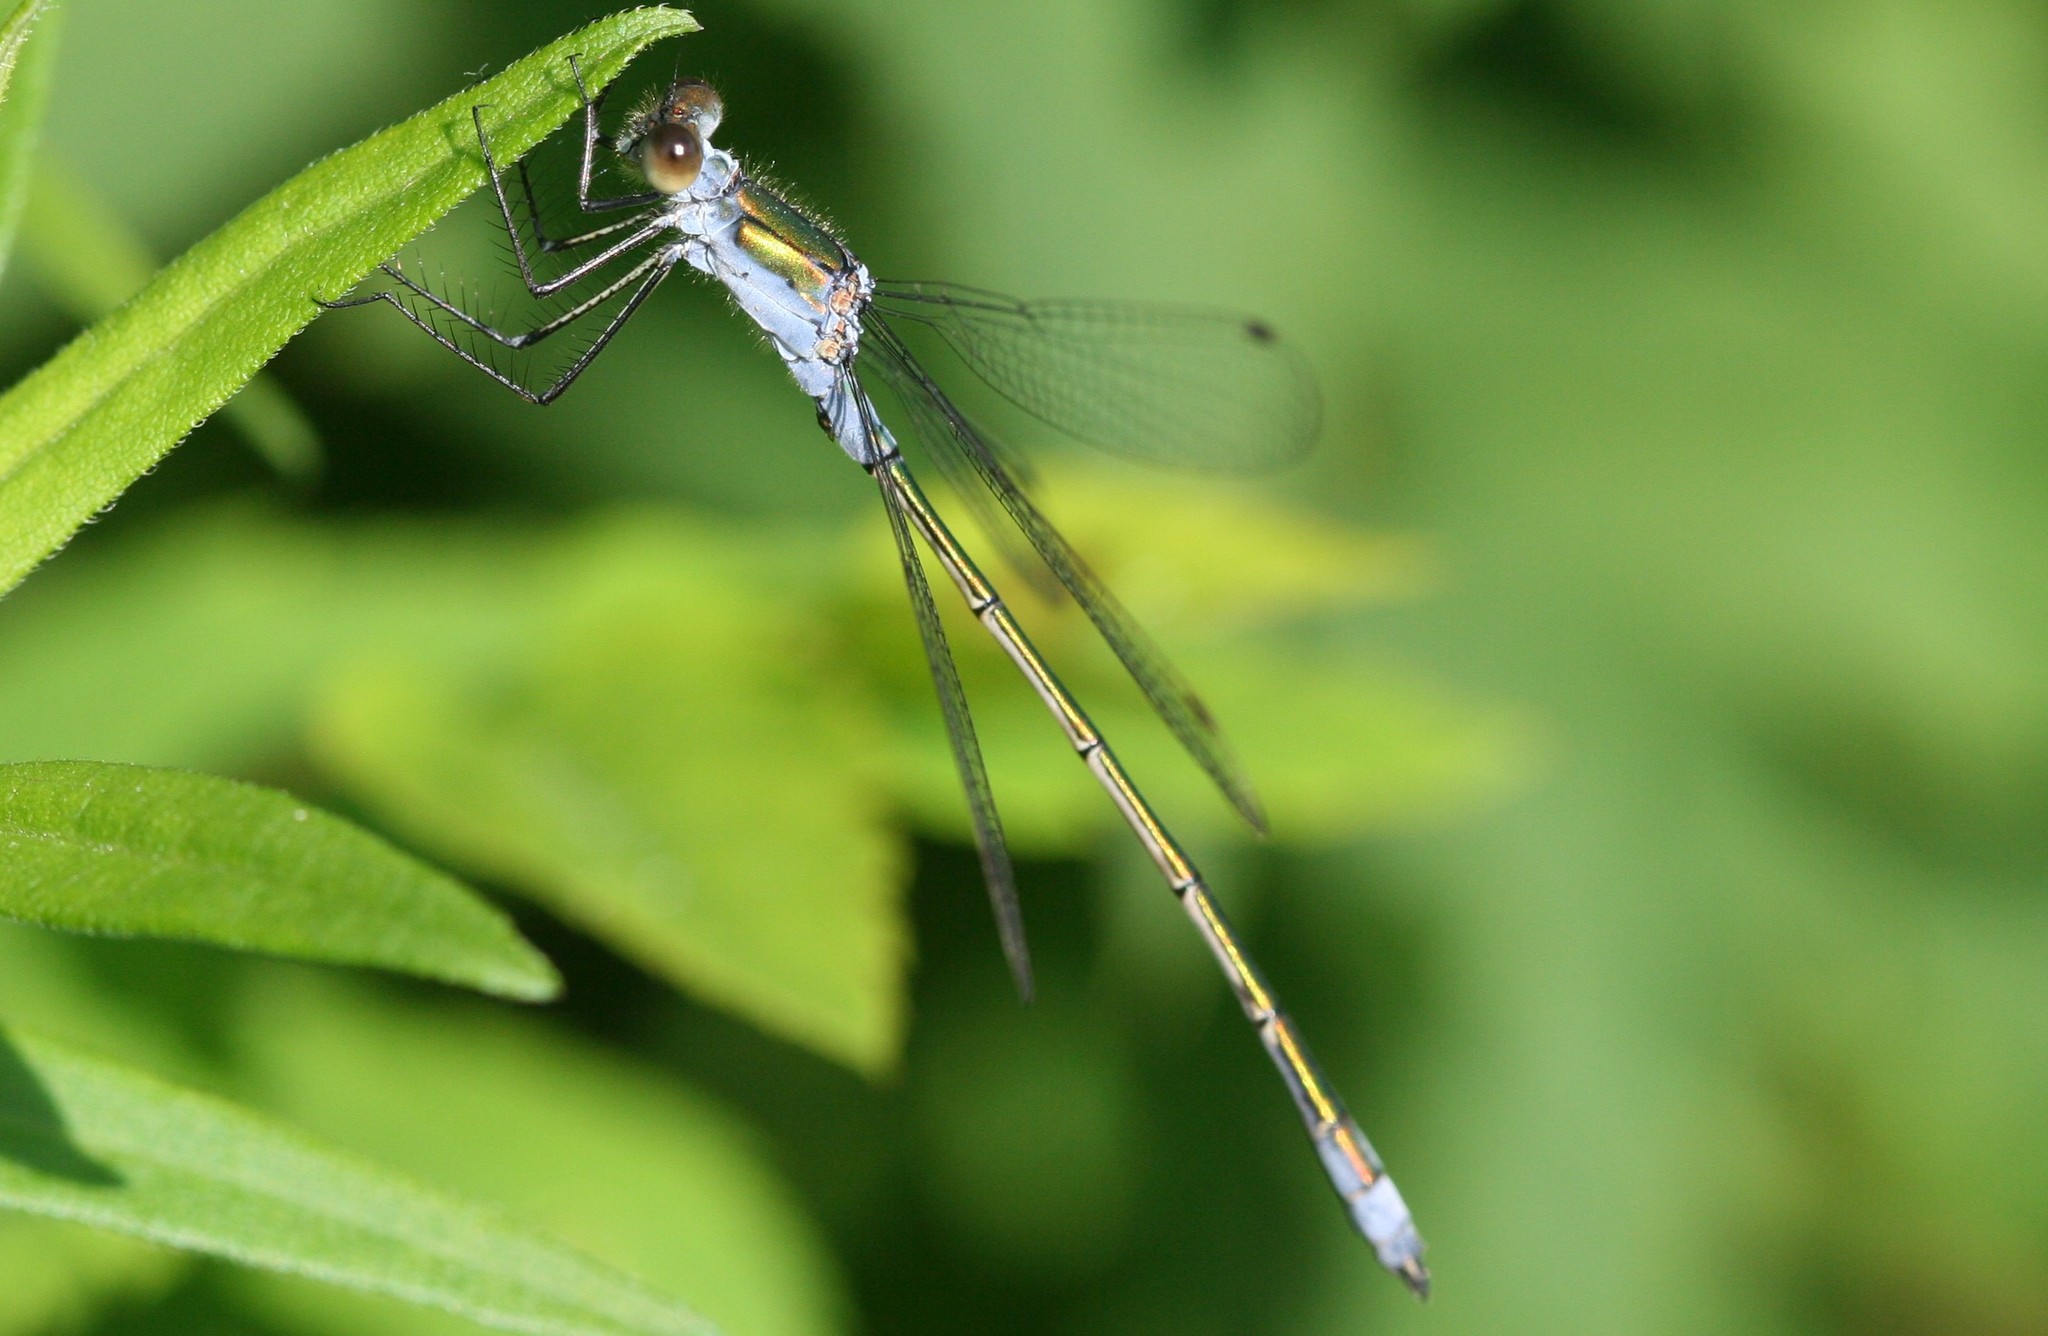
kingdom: Animalia
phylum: Arthropoda
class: Insecta
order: Odonata
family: Lestidae
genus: Lestes
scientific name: Lestes sponsa
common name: Common spreadwing
